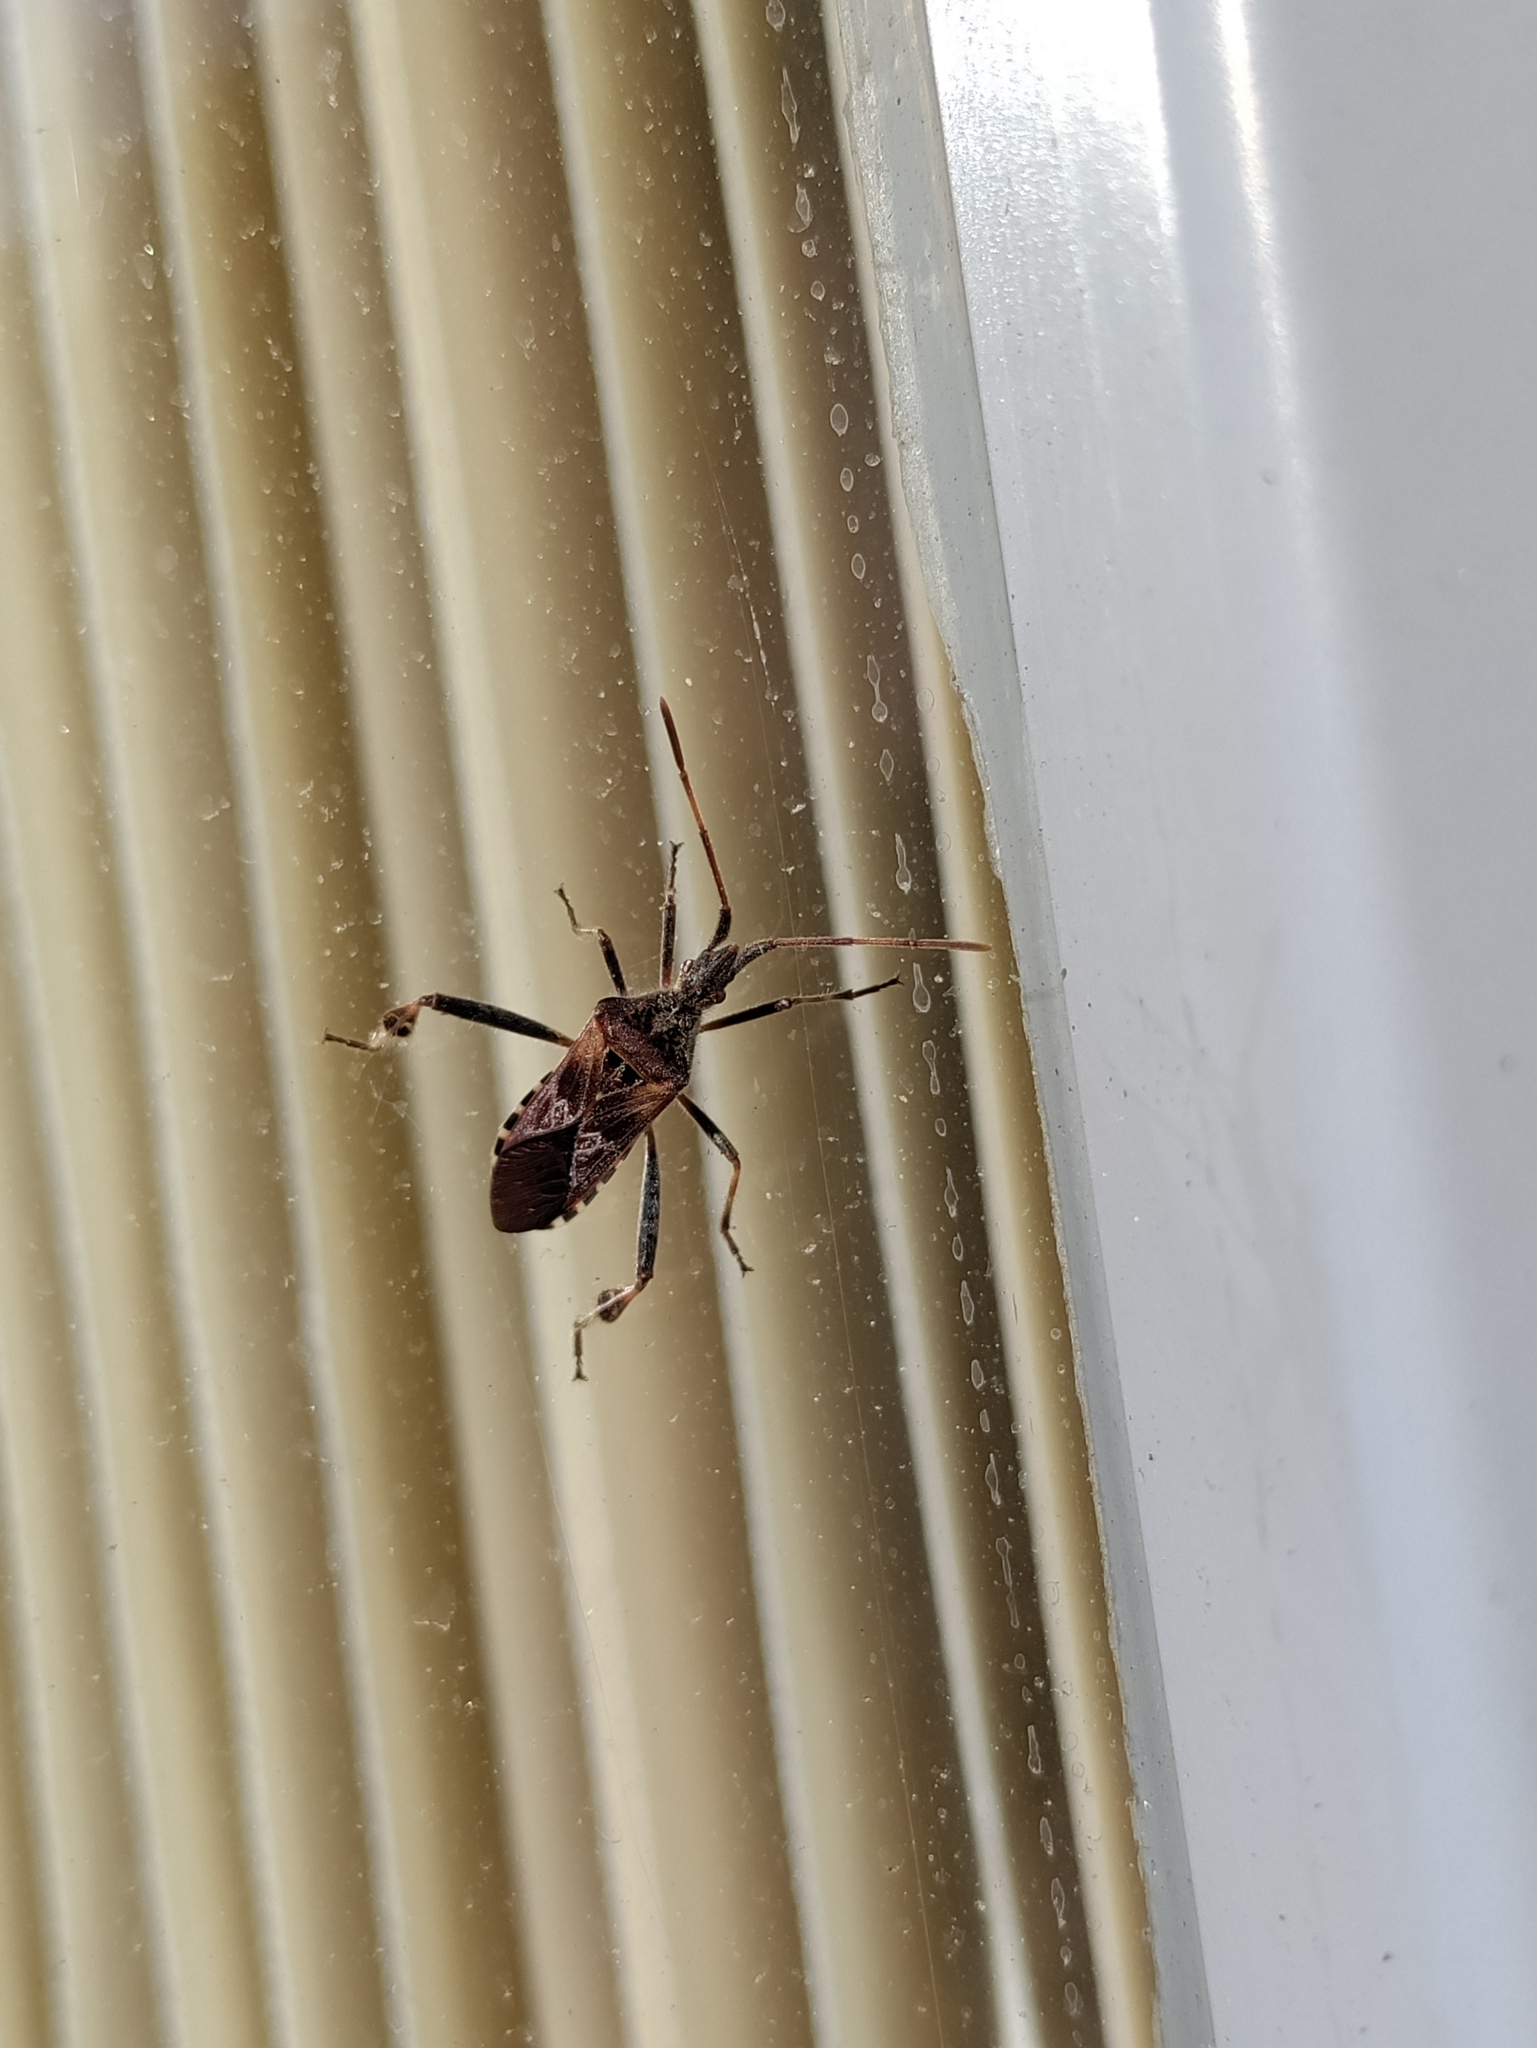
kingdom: Animalia
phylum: Arthropoda
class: Insecta
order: Hemiptera
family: Coreidae
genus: Leptoglossus
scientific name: Leptoglossus occidentalis
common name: Western conifer-seed bug
